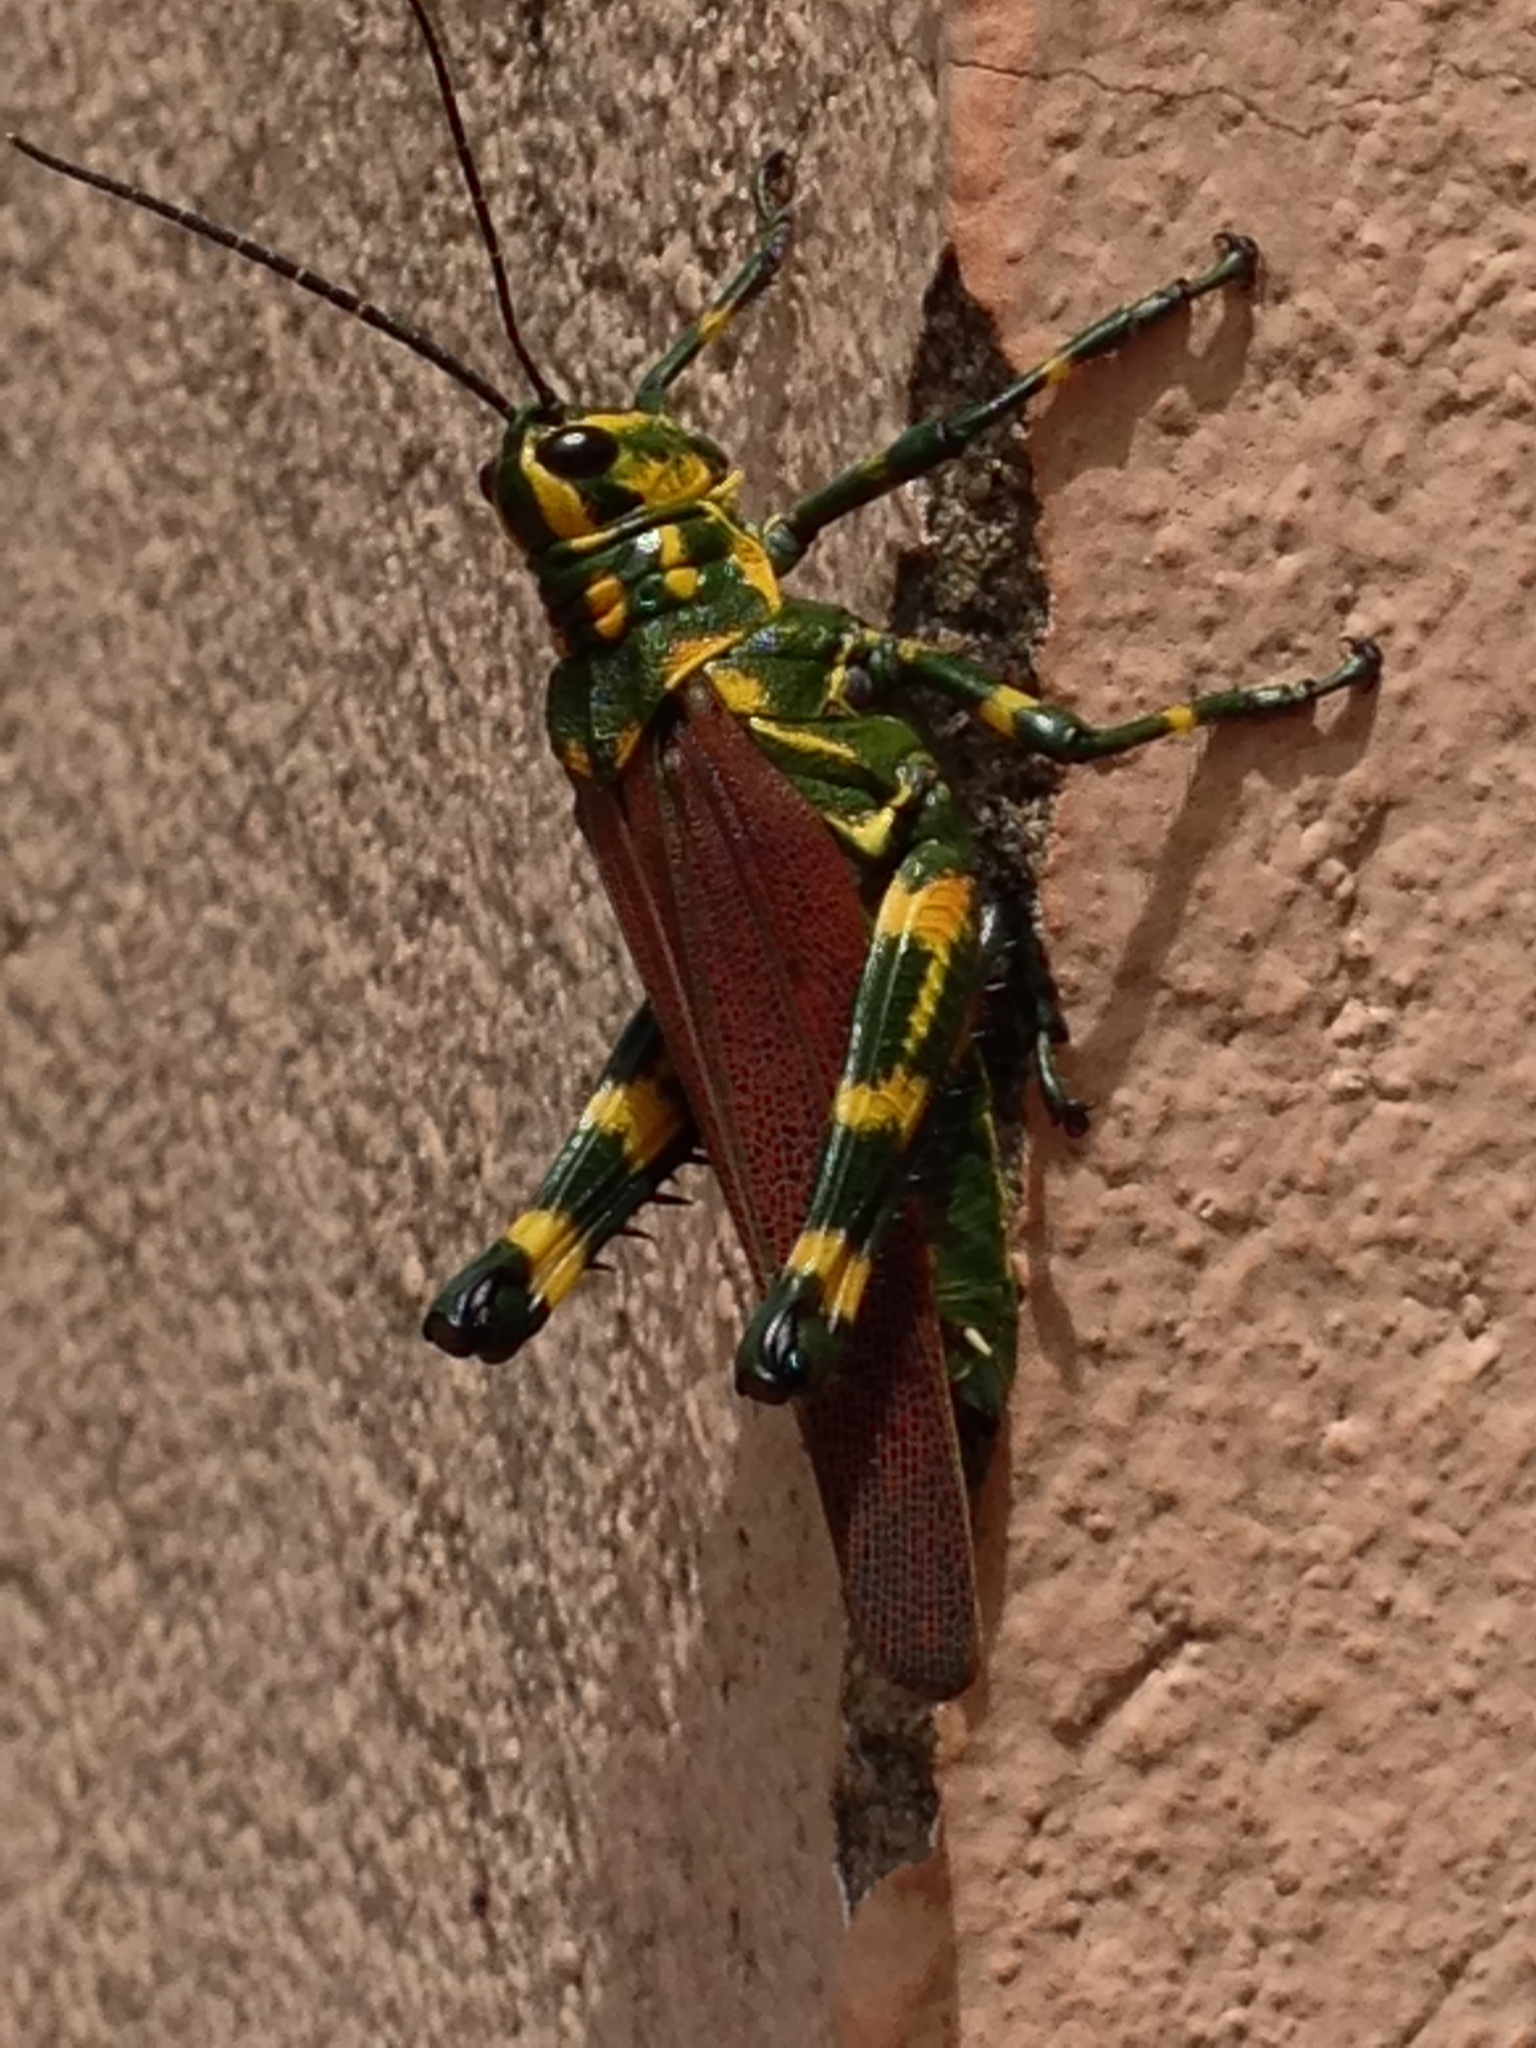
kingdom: Animalia
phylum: Arthropoda
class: Insecta
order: Orthoptera
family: Romaleidae
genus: Chromacris
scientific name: Chromacris speciosa
